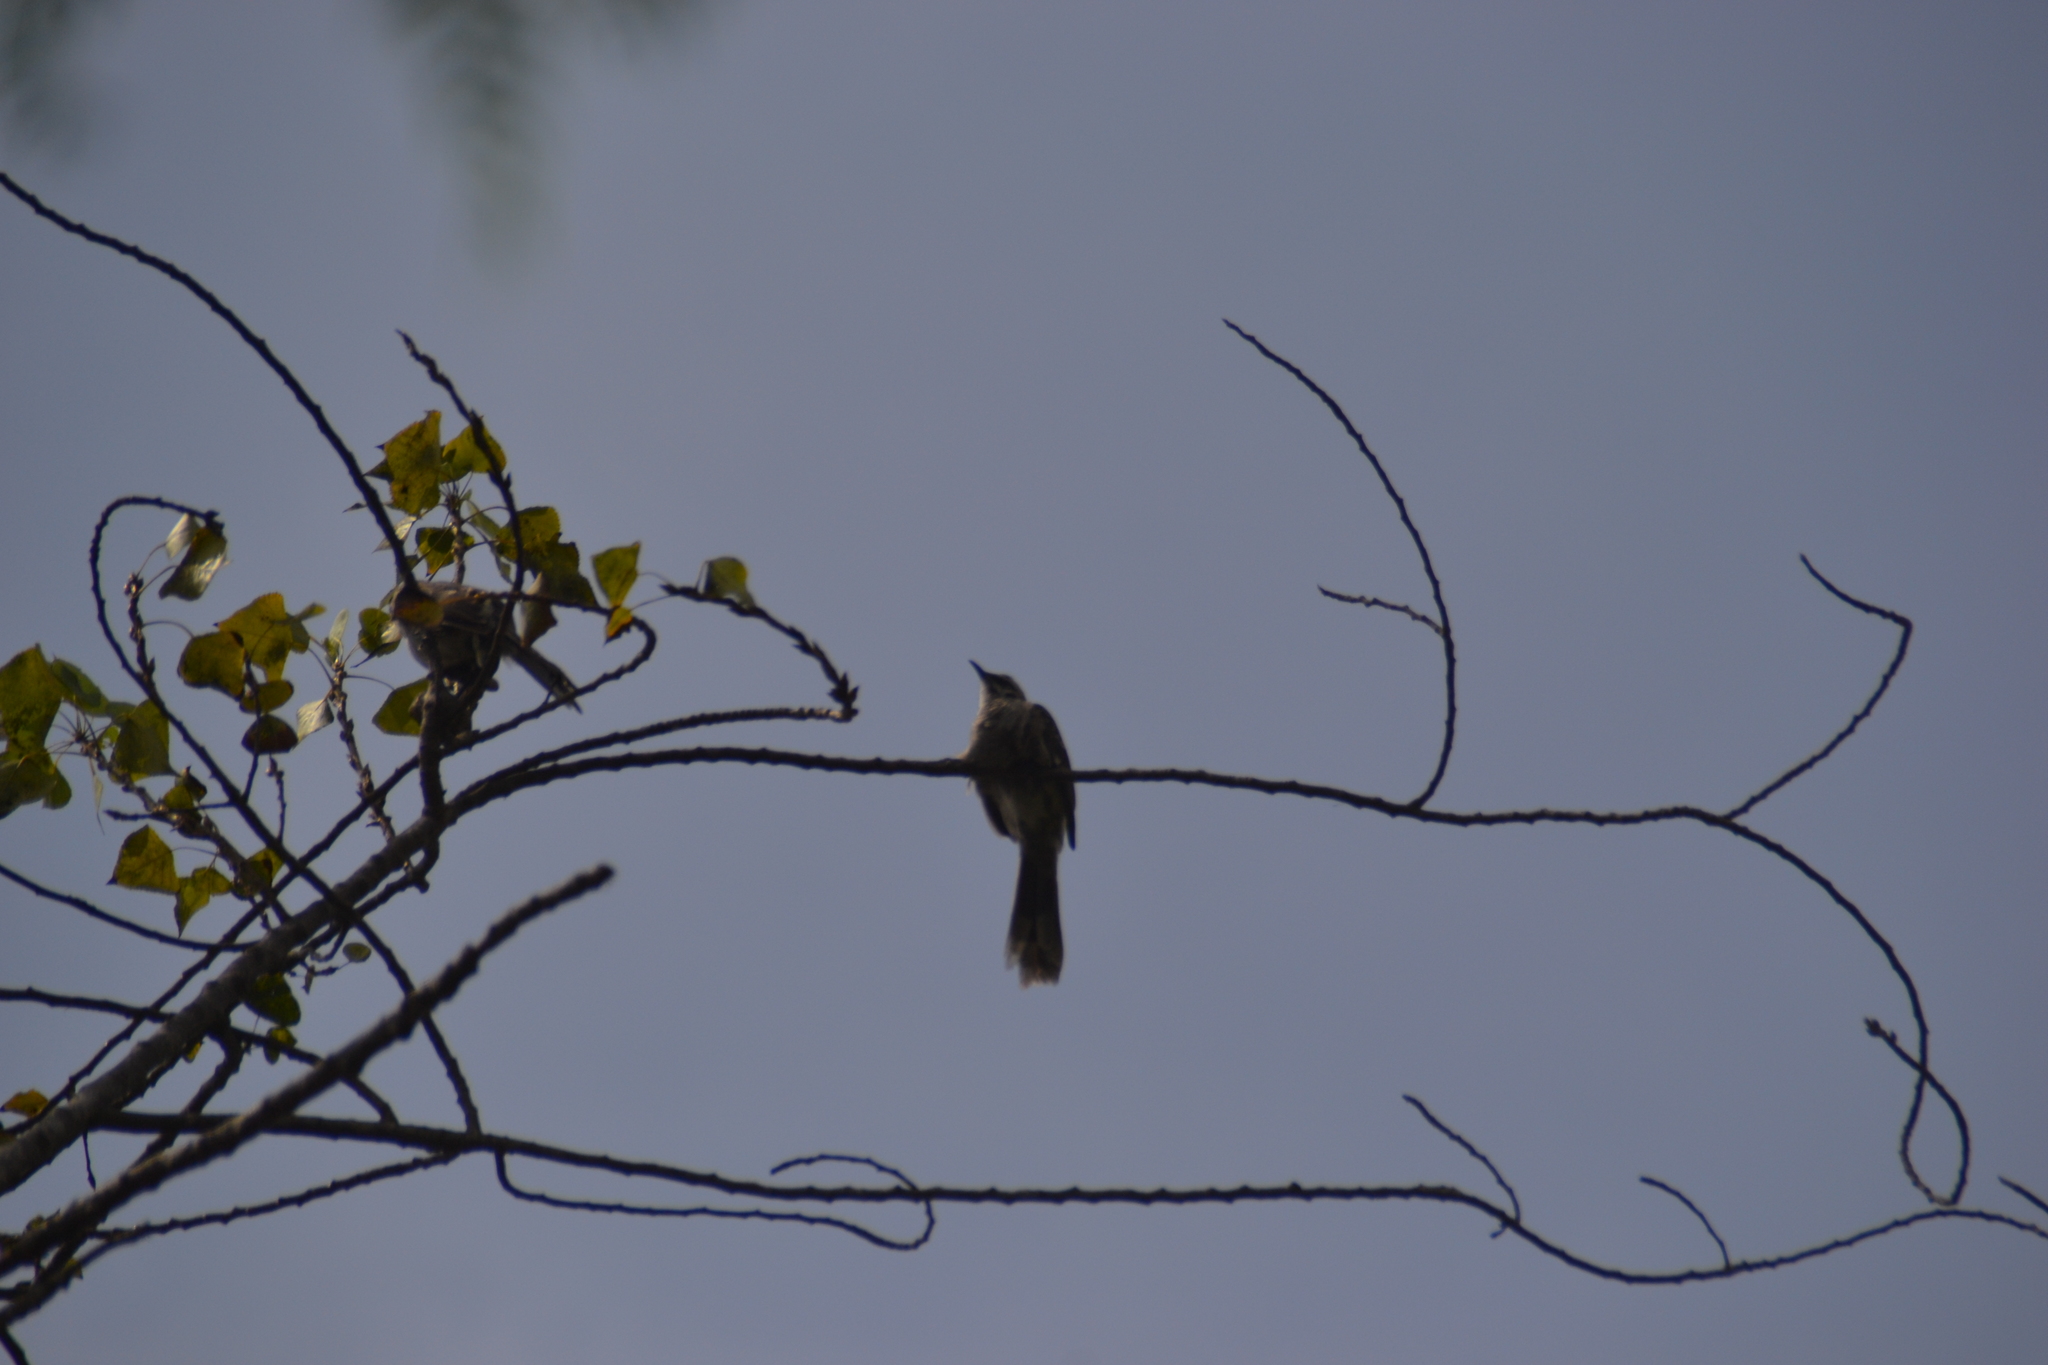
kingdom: Animalia
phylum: Chordata
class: Aves
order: Passeriformes
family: Mimidae
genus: Mimus
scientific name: Mimus longicaudatus
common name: Long-tailed mockingbird
